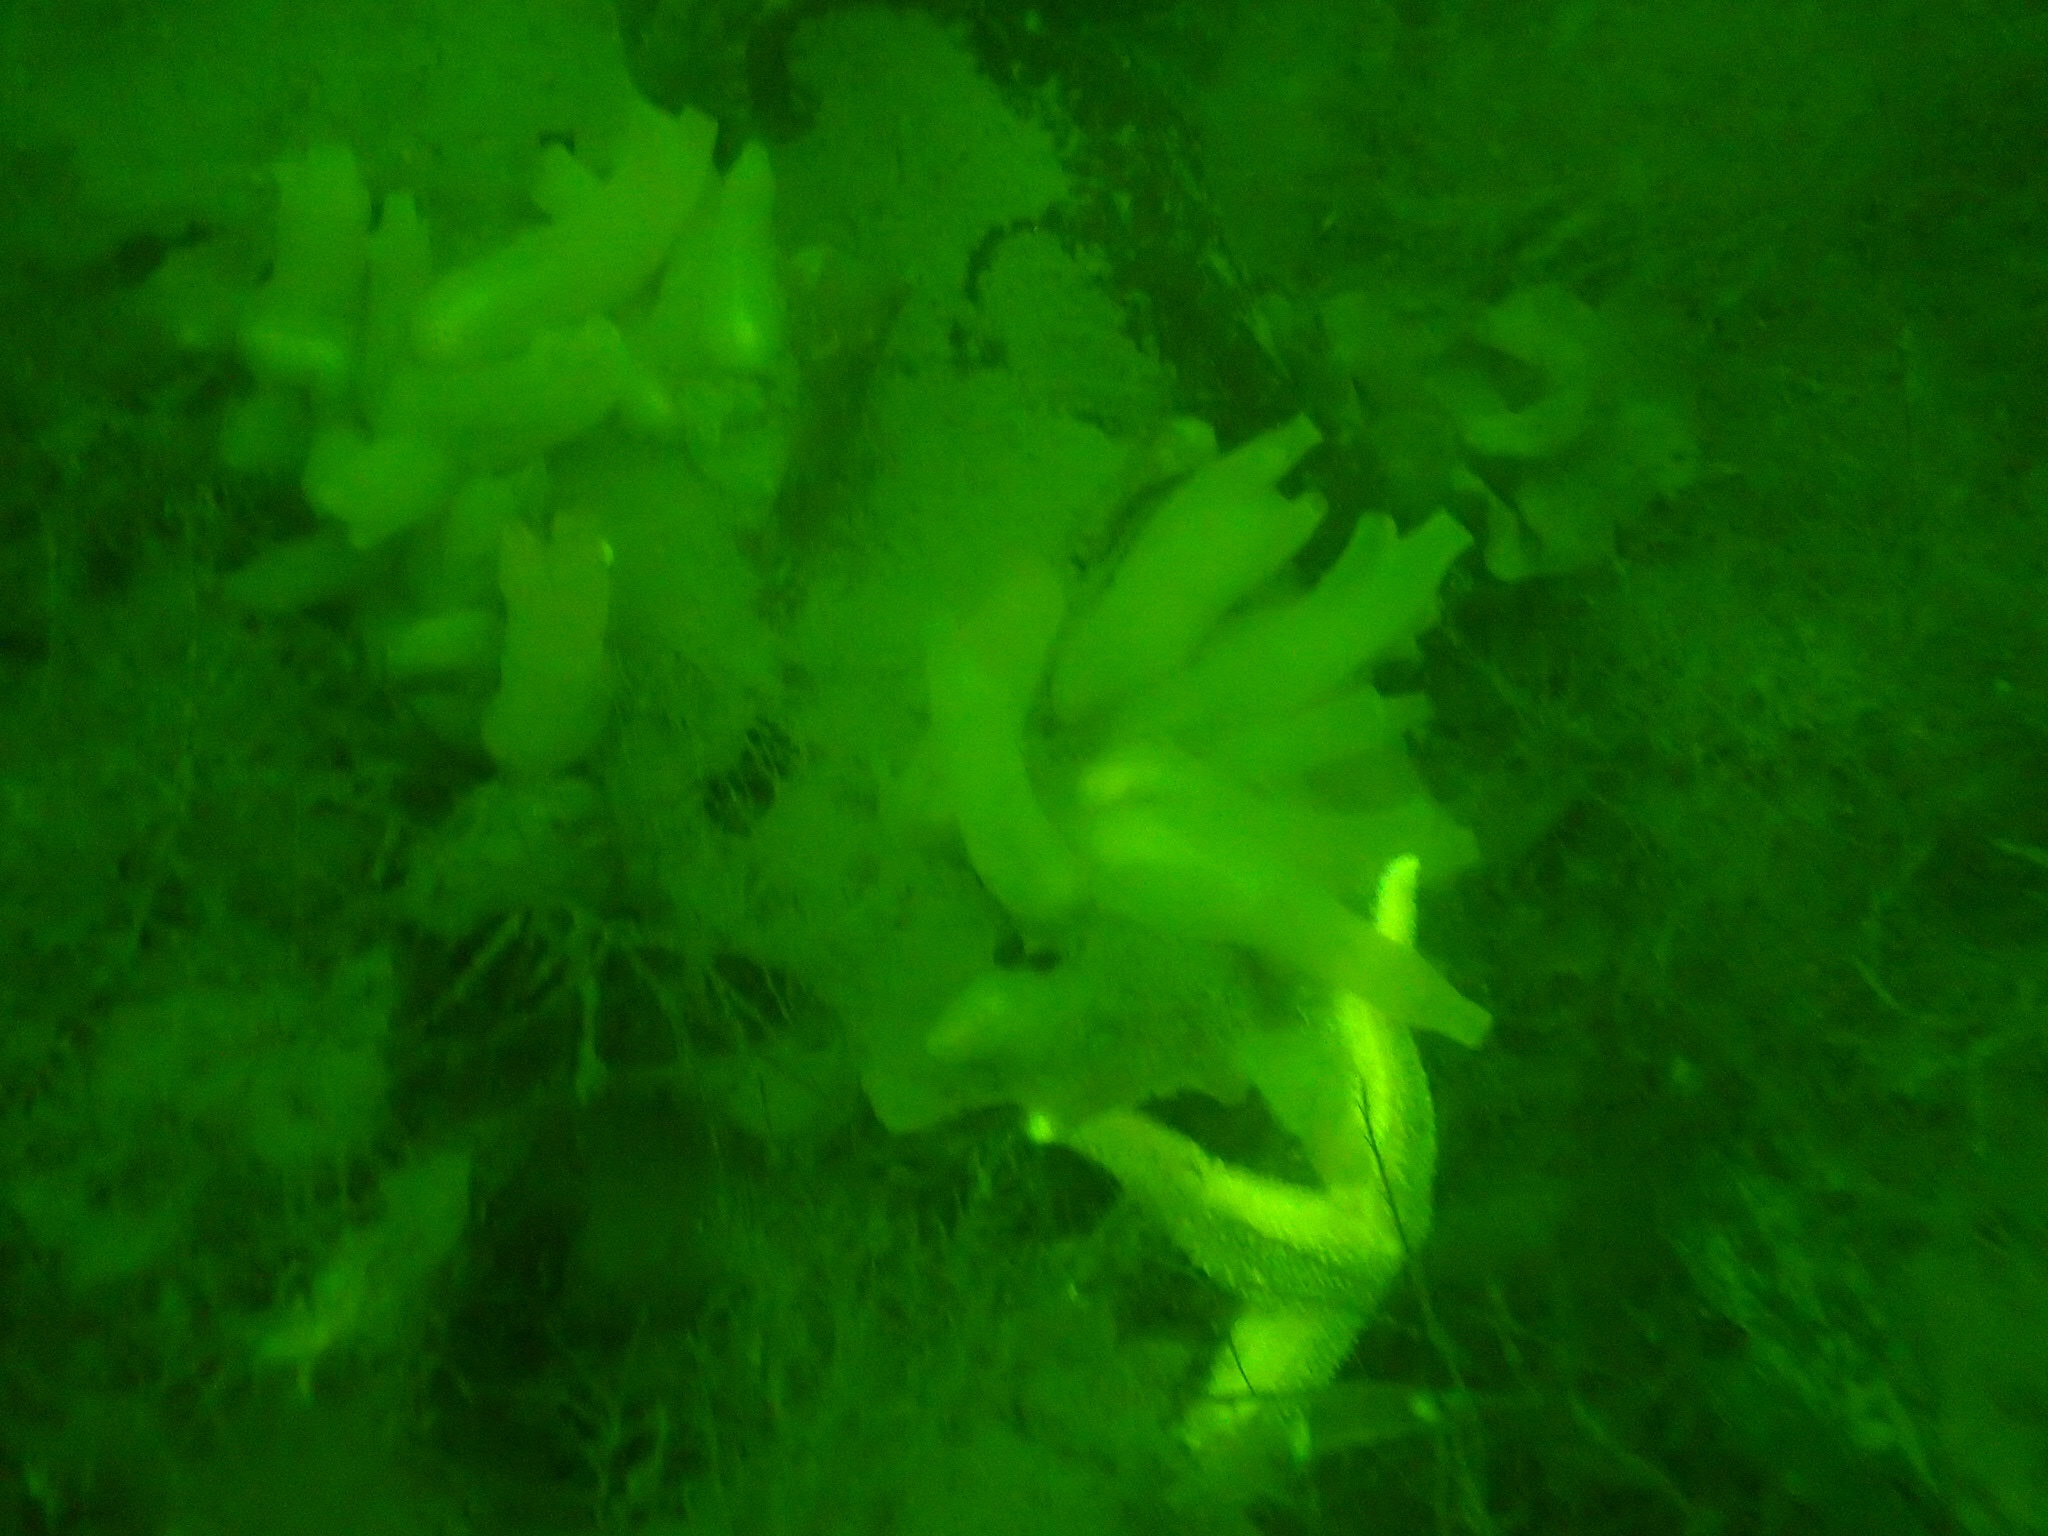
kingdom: Animalia
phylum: Chordata
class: Ascidiacea
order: Phlebobranchia
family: Cionidae
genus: Ciona
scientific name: Ciona intestinalis
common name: Vase tunicate
